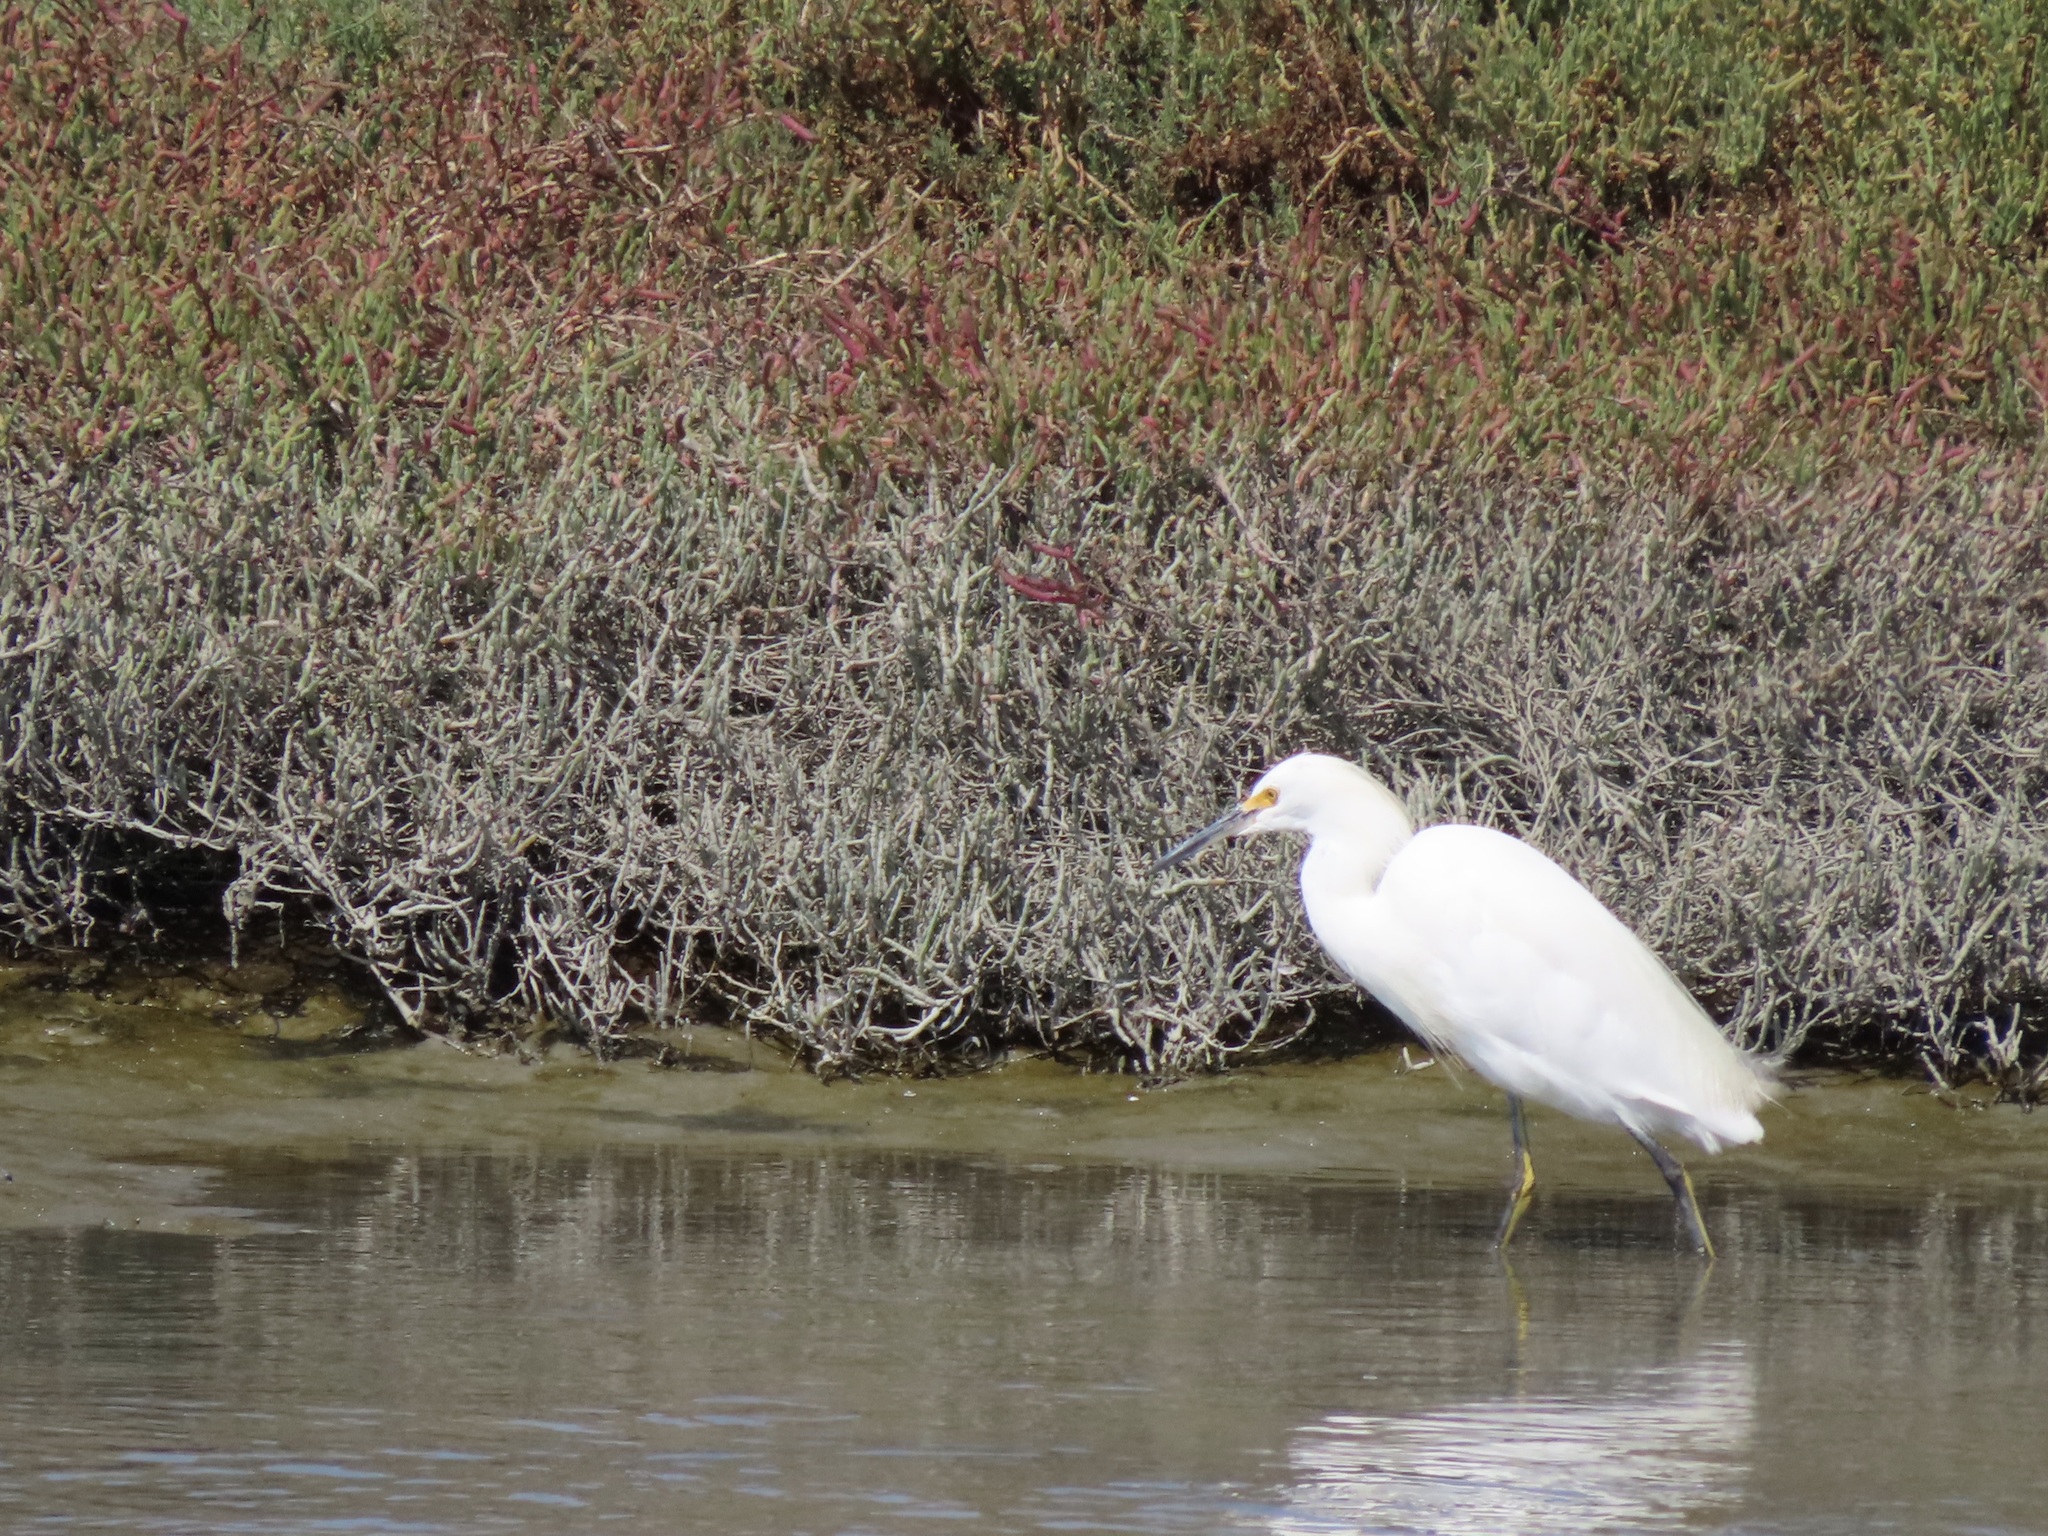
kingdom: Animalia
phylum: Chordata
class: Aves
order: Pelecaniformes
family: Ardeidae
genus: Egretta
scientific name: Egretta thula
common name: Snowy egret
